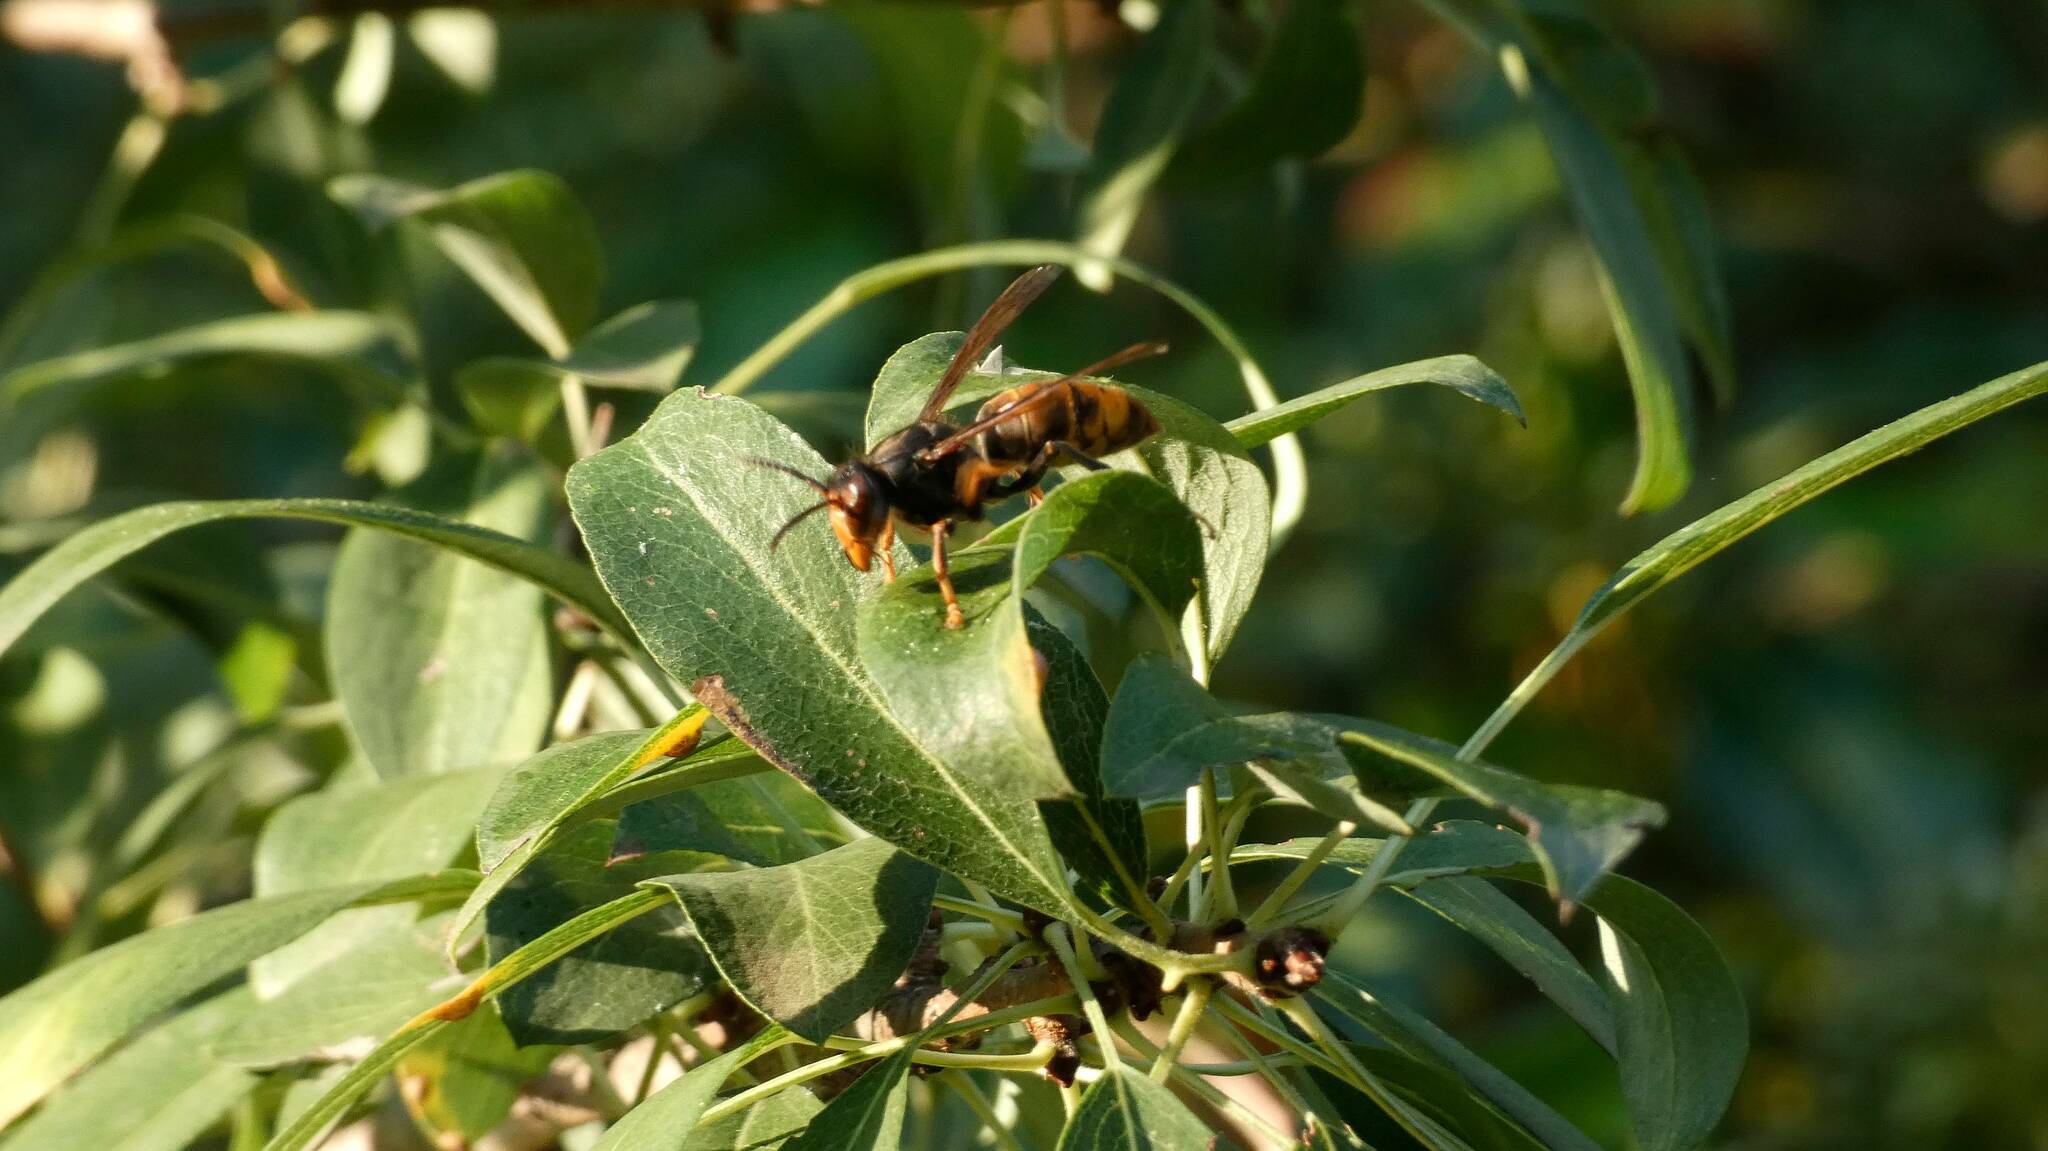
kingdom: Animalia
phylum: Arthropoda
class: Insecta
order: Hymenoptera
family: Vespidae
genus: Vespa
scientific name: Vespa velutina
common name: Asian hornet
